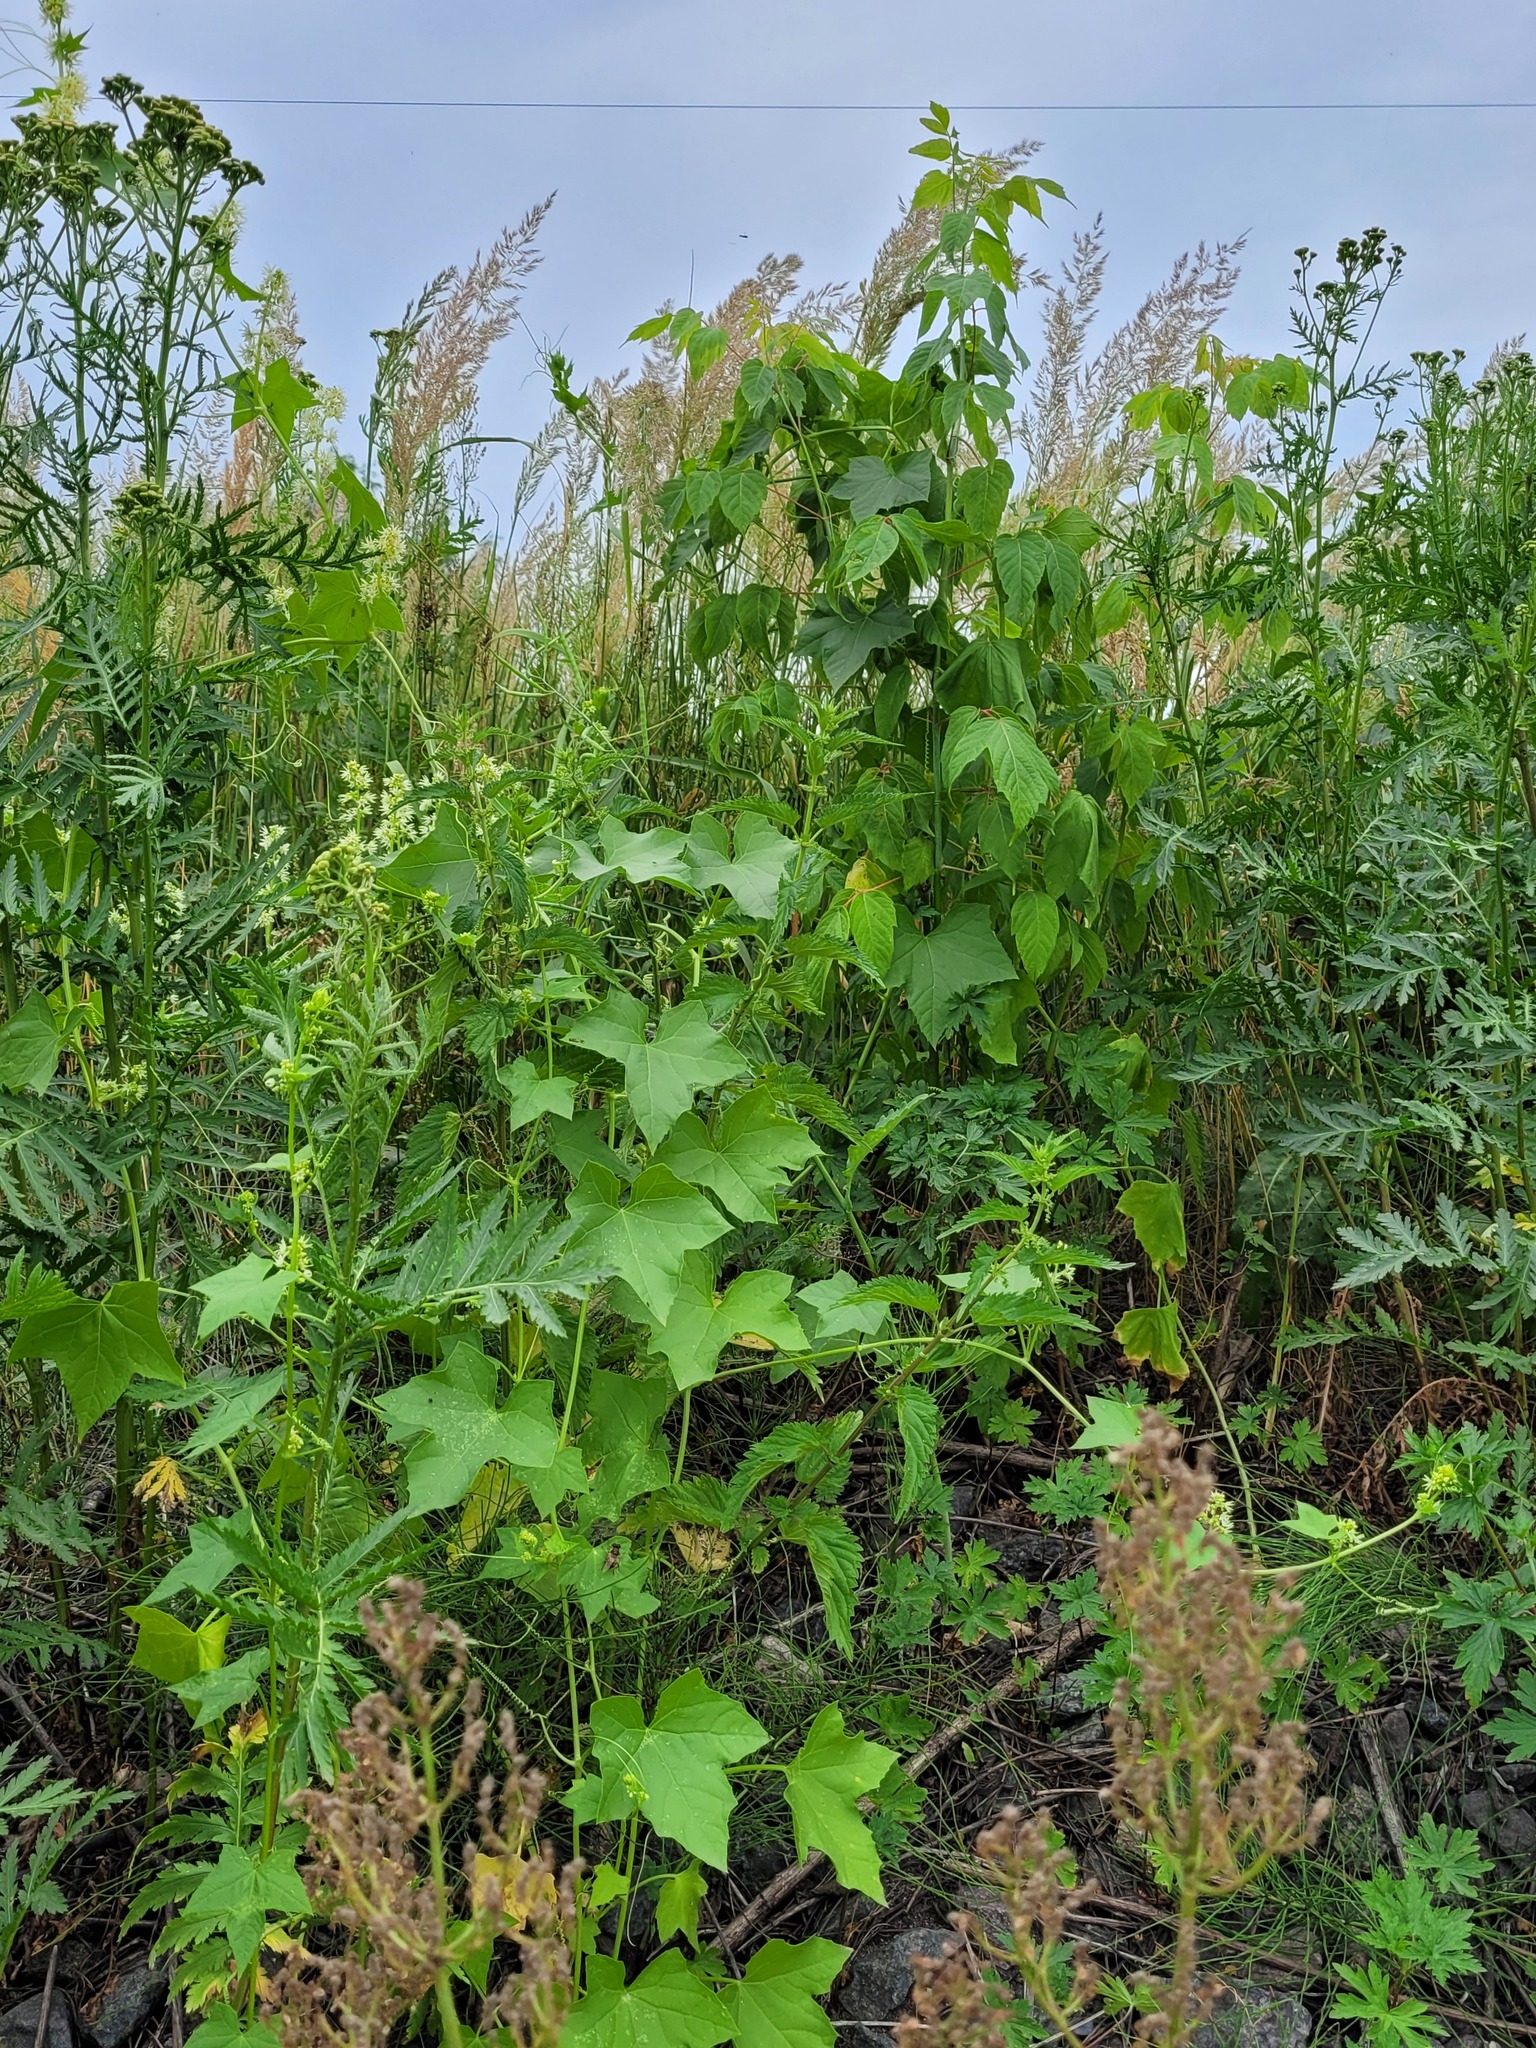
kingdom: Plantae
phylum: Tracheophyta
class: Magnoliopsida
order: Cucurbitales
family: Cucurbitaceae
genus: Echinocystis
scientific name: Echinocystis lobata
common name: Wild cucumber
